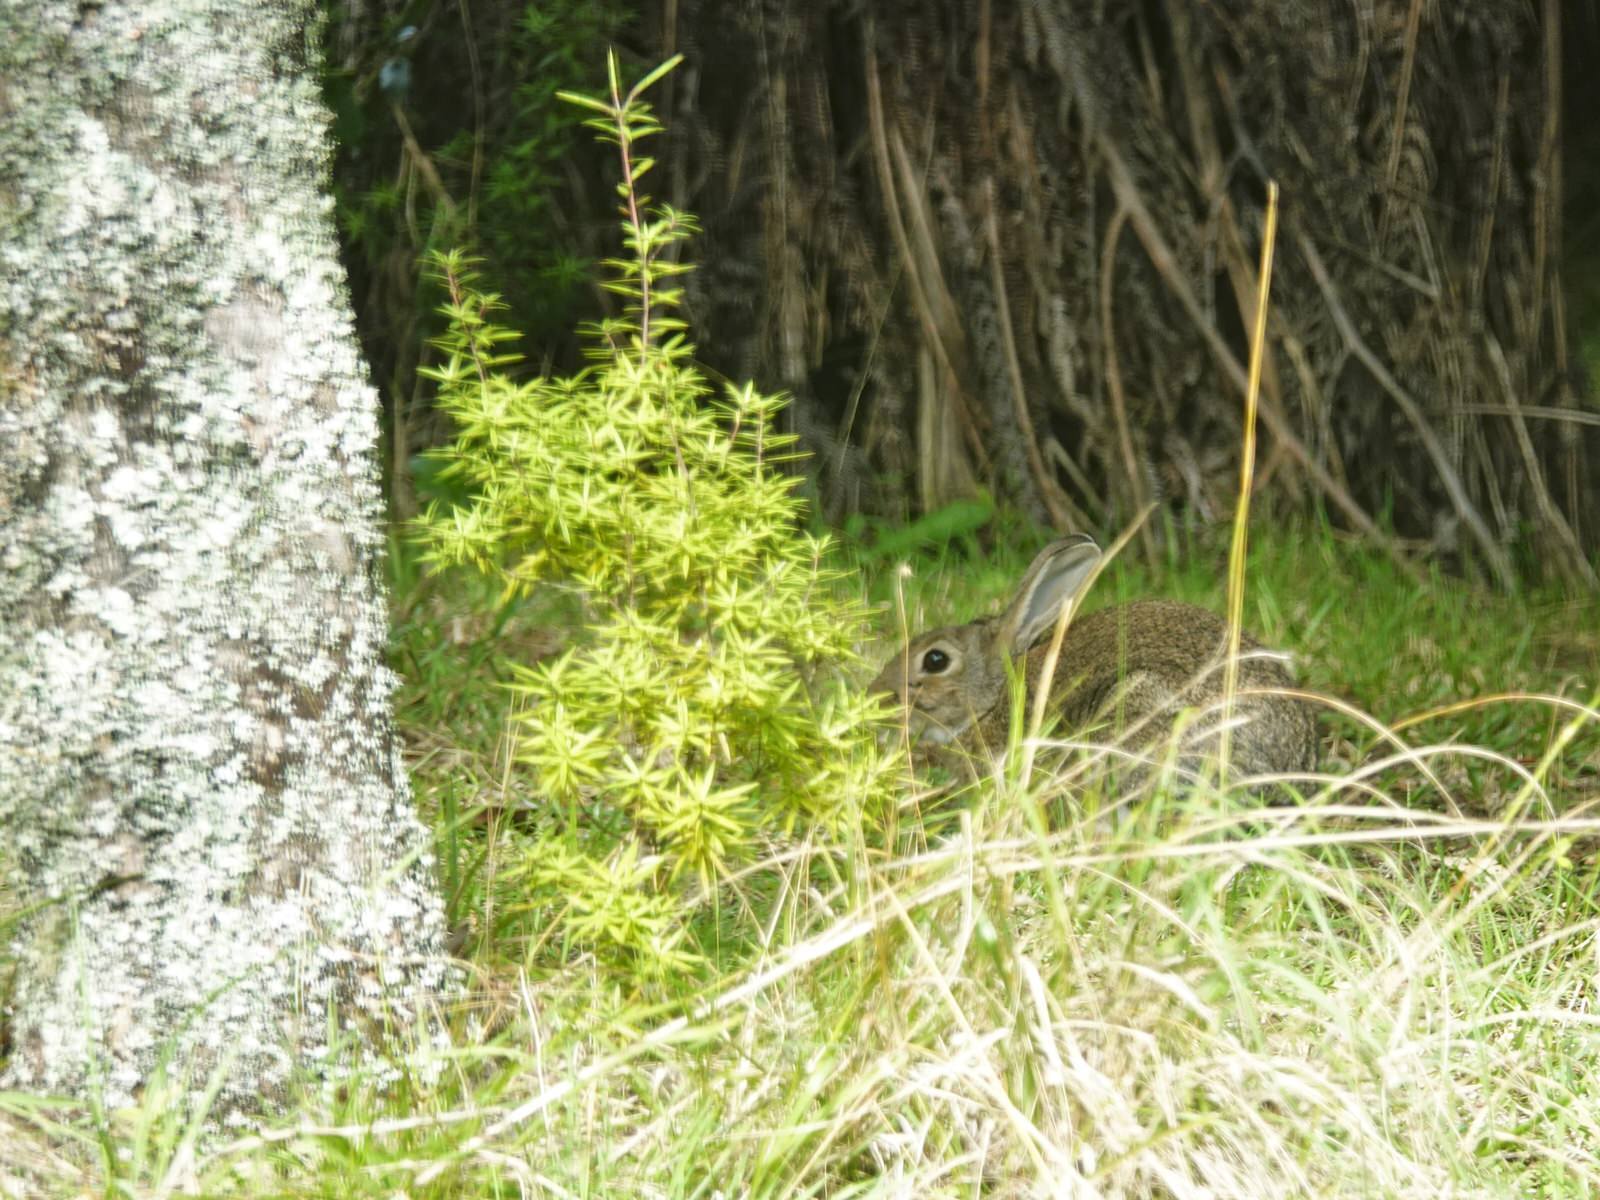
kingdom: Animalia
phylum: Chordata
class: Mammalia
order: Lagomorpha
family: Leporidae
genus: Oryctolagus
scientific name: Oryctolagus cuniculus
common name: European rabbit
